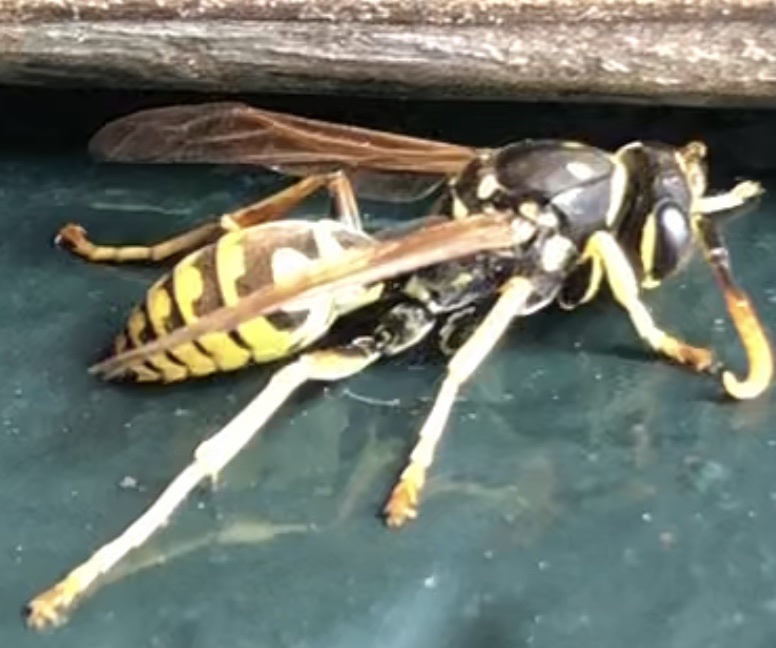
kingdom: Animalia
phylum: Arthropoda
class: Insecta
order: Hymenoptera
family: Eumenidae
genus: Polistes
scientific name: Polistes dominula
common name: Paper wasp
